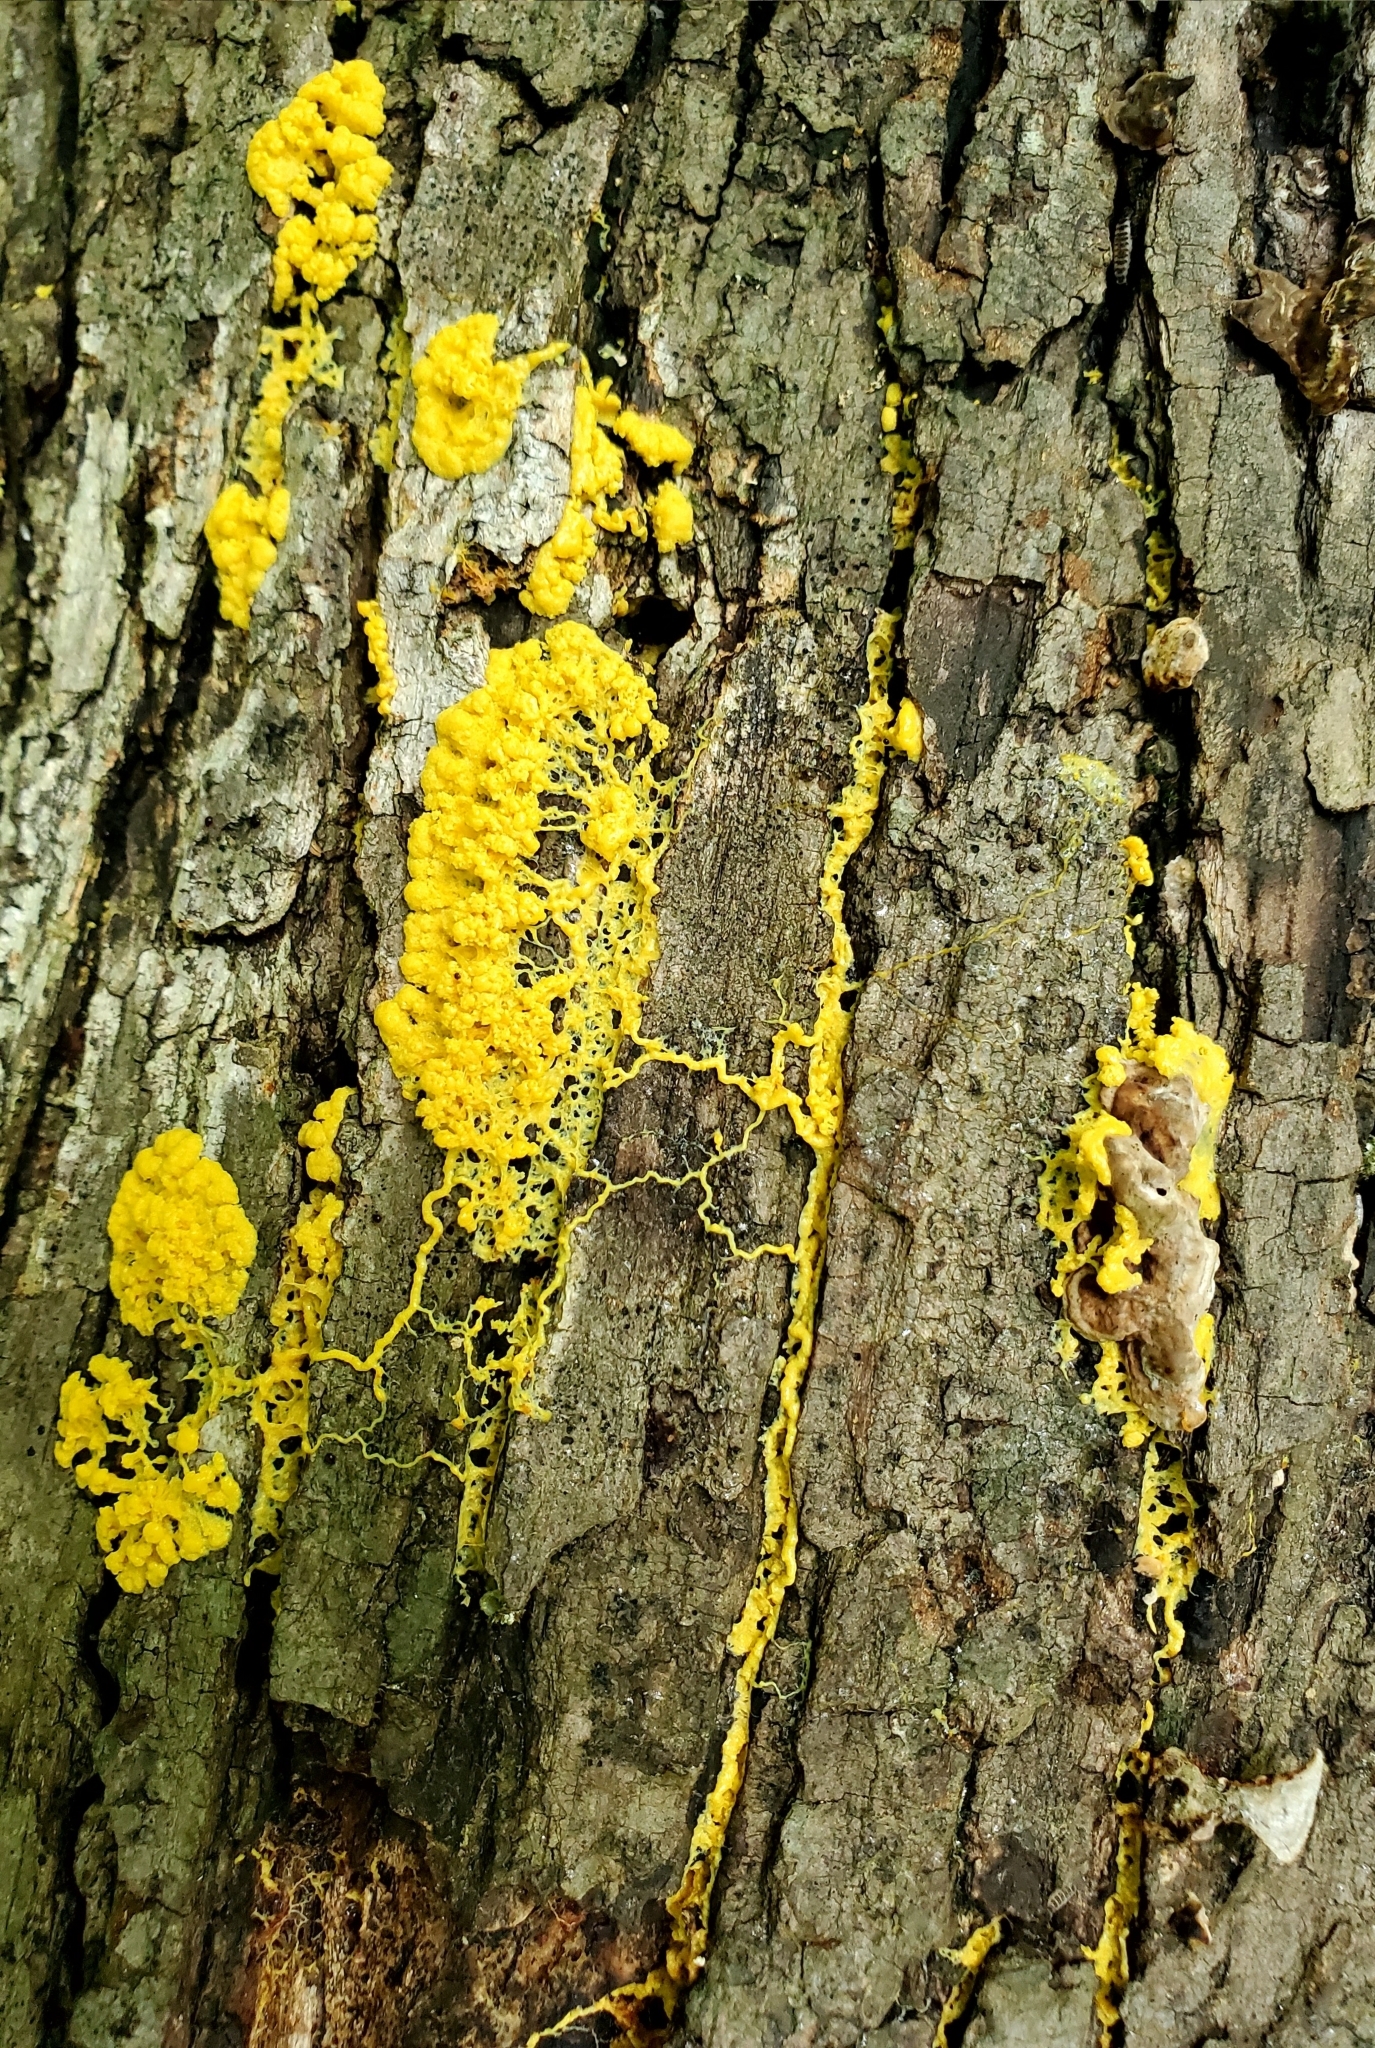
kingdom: Protozoa
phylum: Mycetozoa
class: Myxomycetes
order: Physarales
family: Physaraceae
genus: Fuligo
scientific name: Fuligo septica
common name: Dog vomit slime mold
